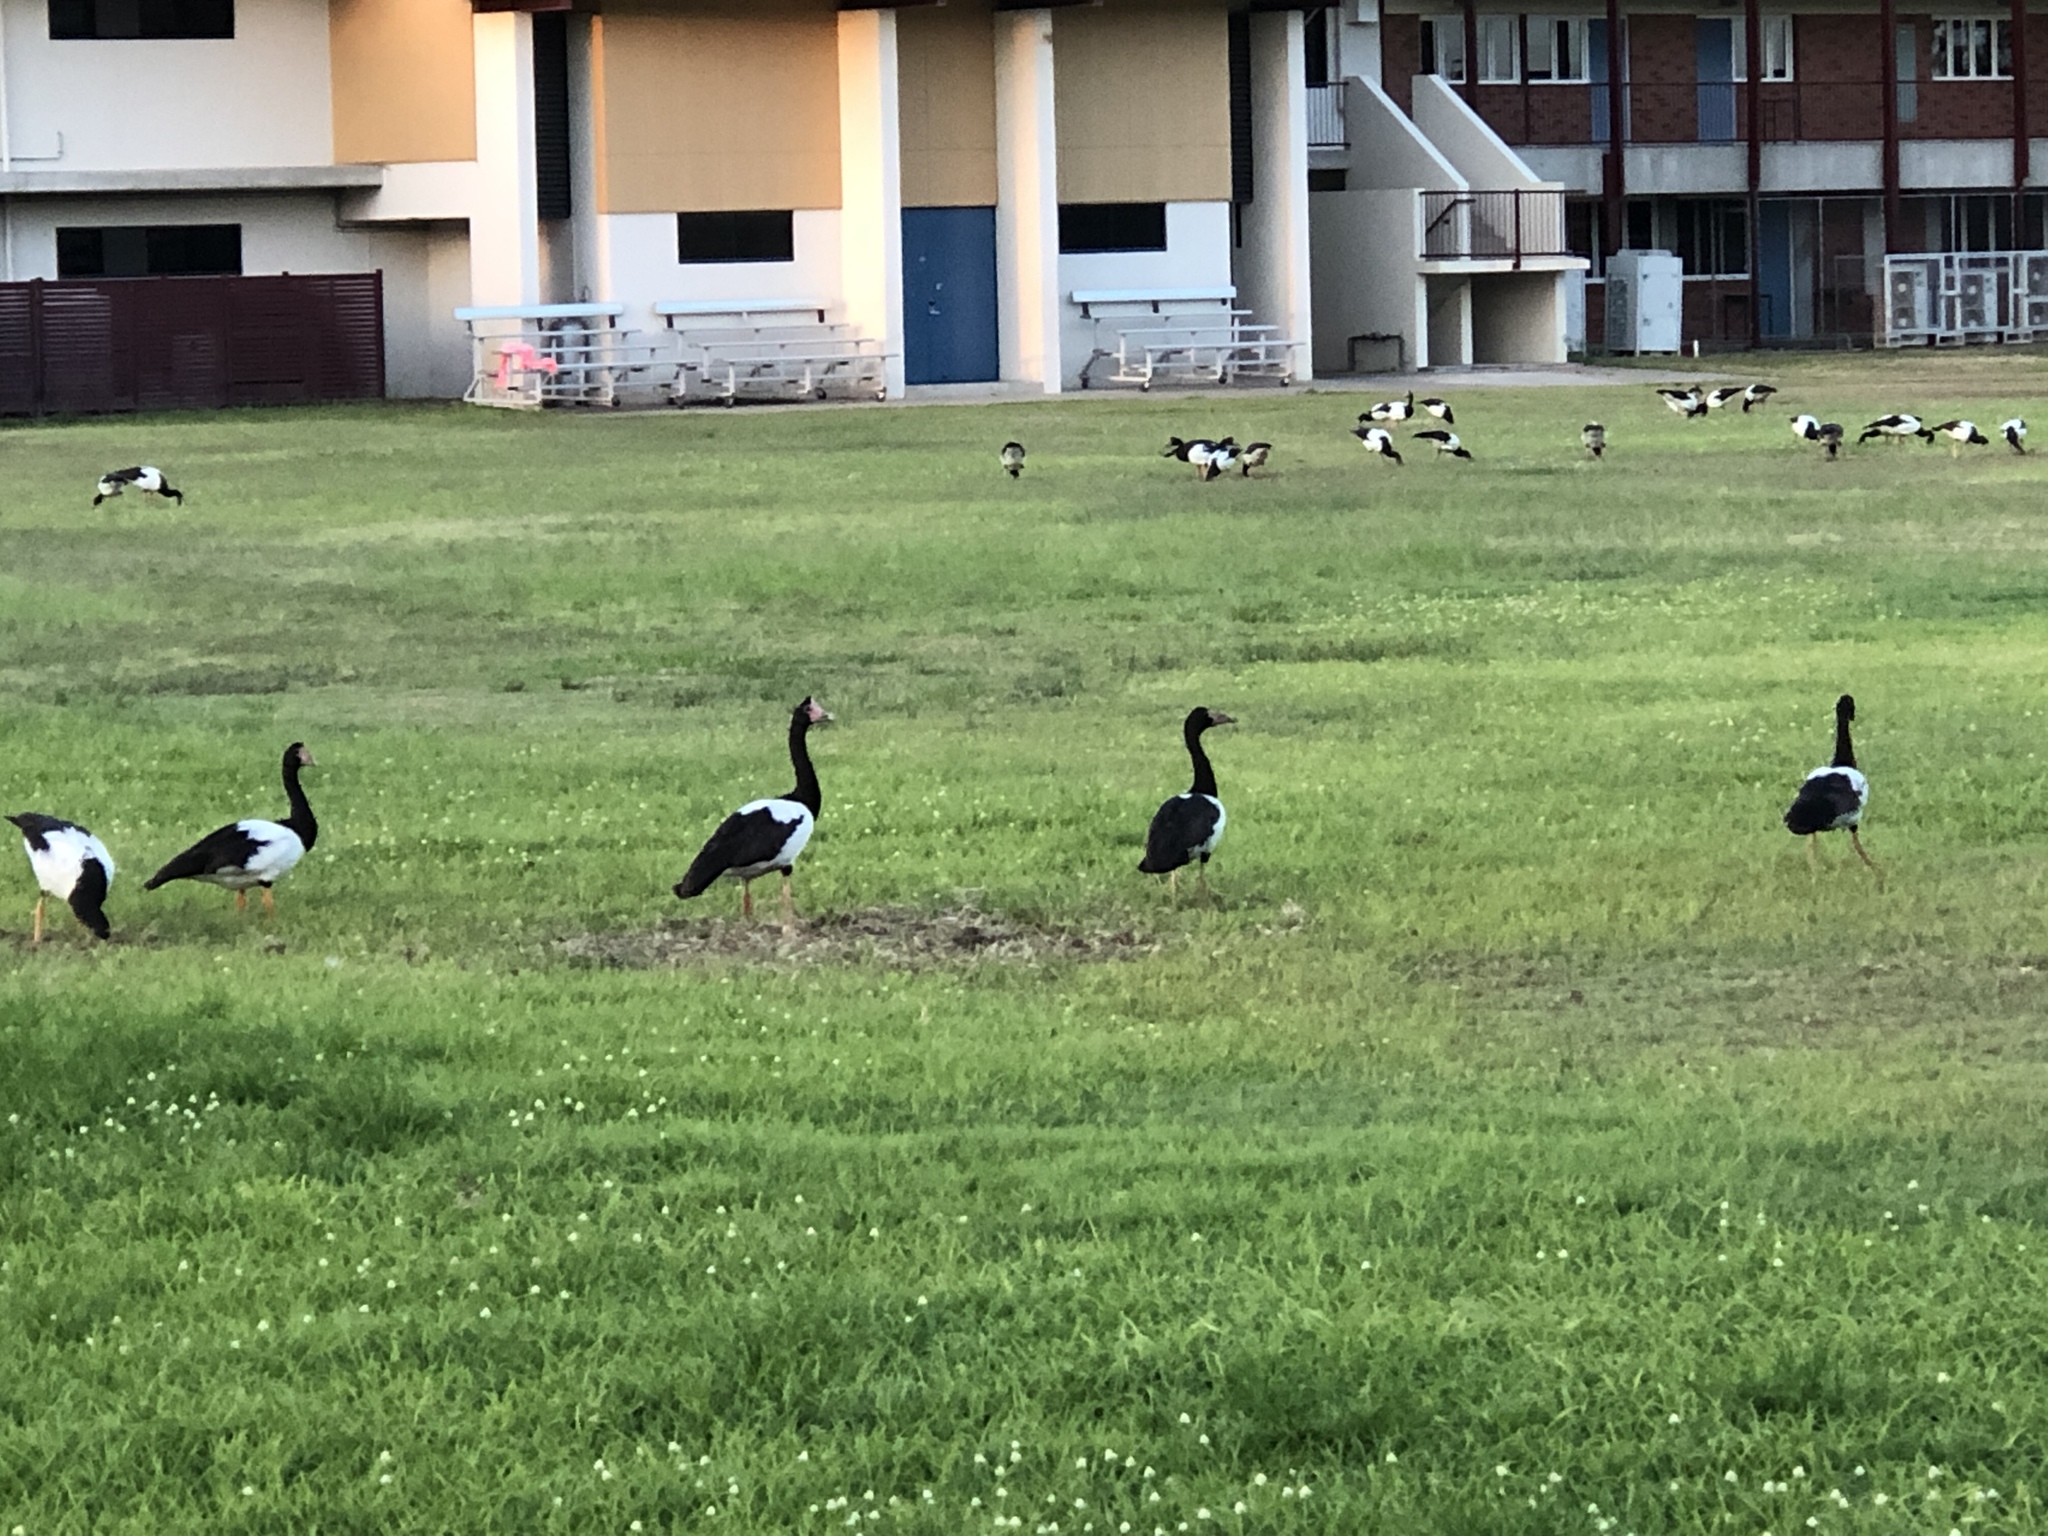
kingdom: Animalia
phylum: Chordata
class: Aves
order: Anseriformes
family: Anseranatidae
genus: Anseranas
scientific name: Anseranas semipalmata
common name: Magpie goose
